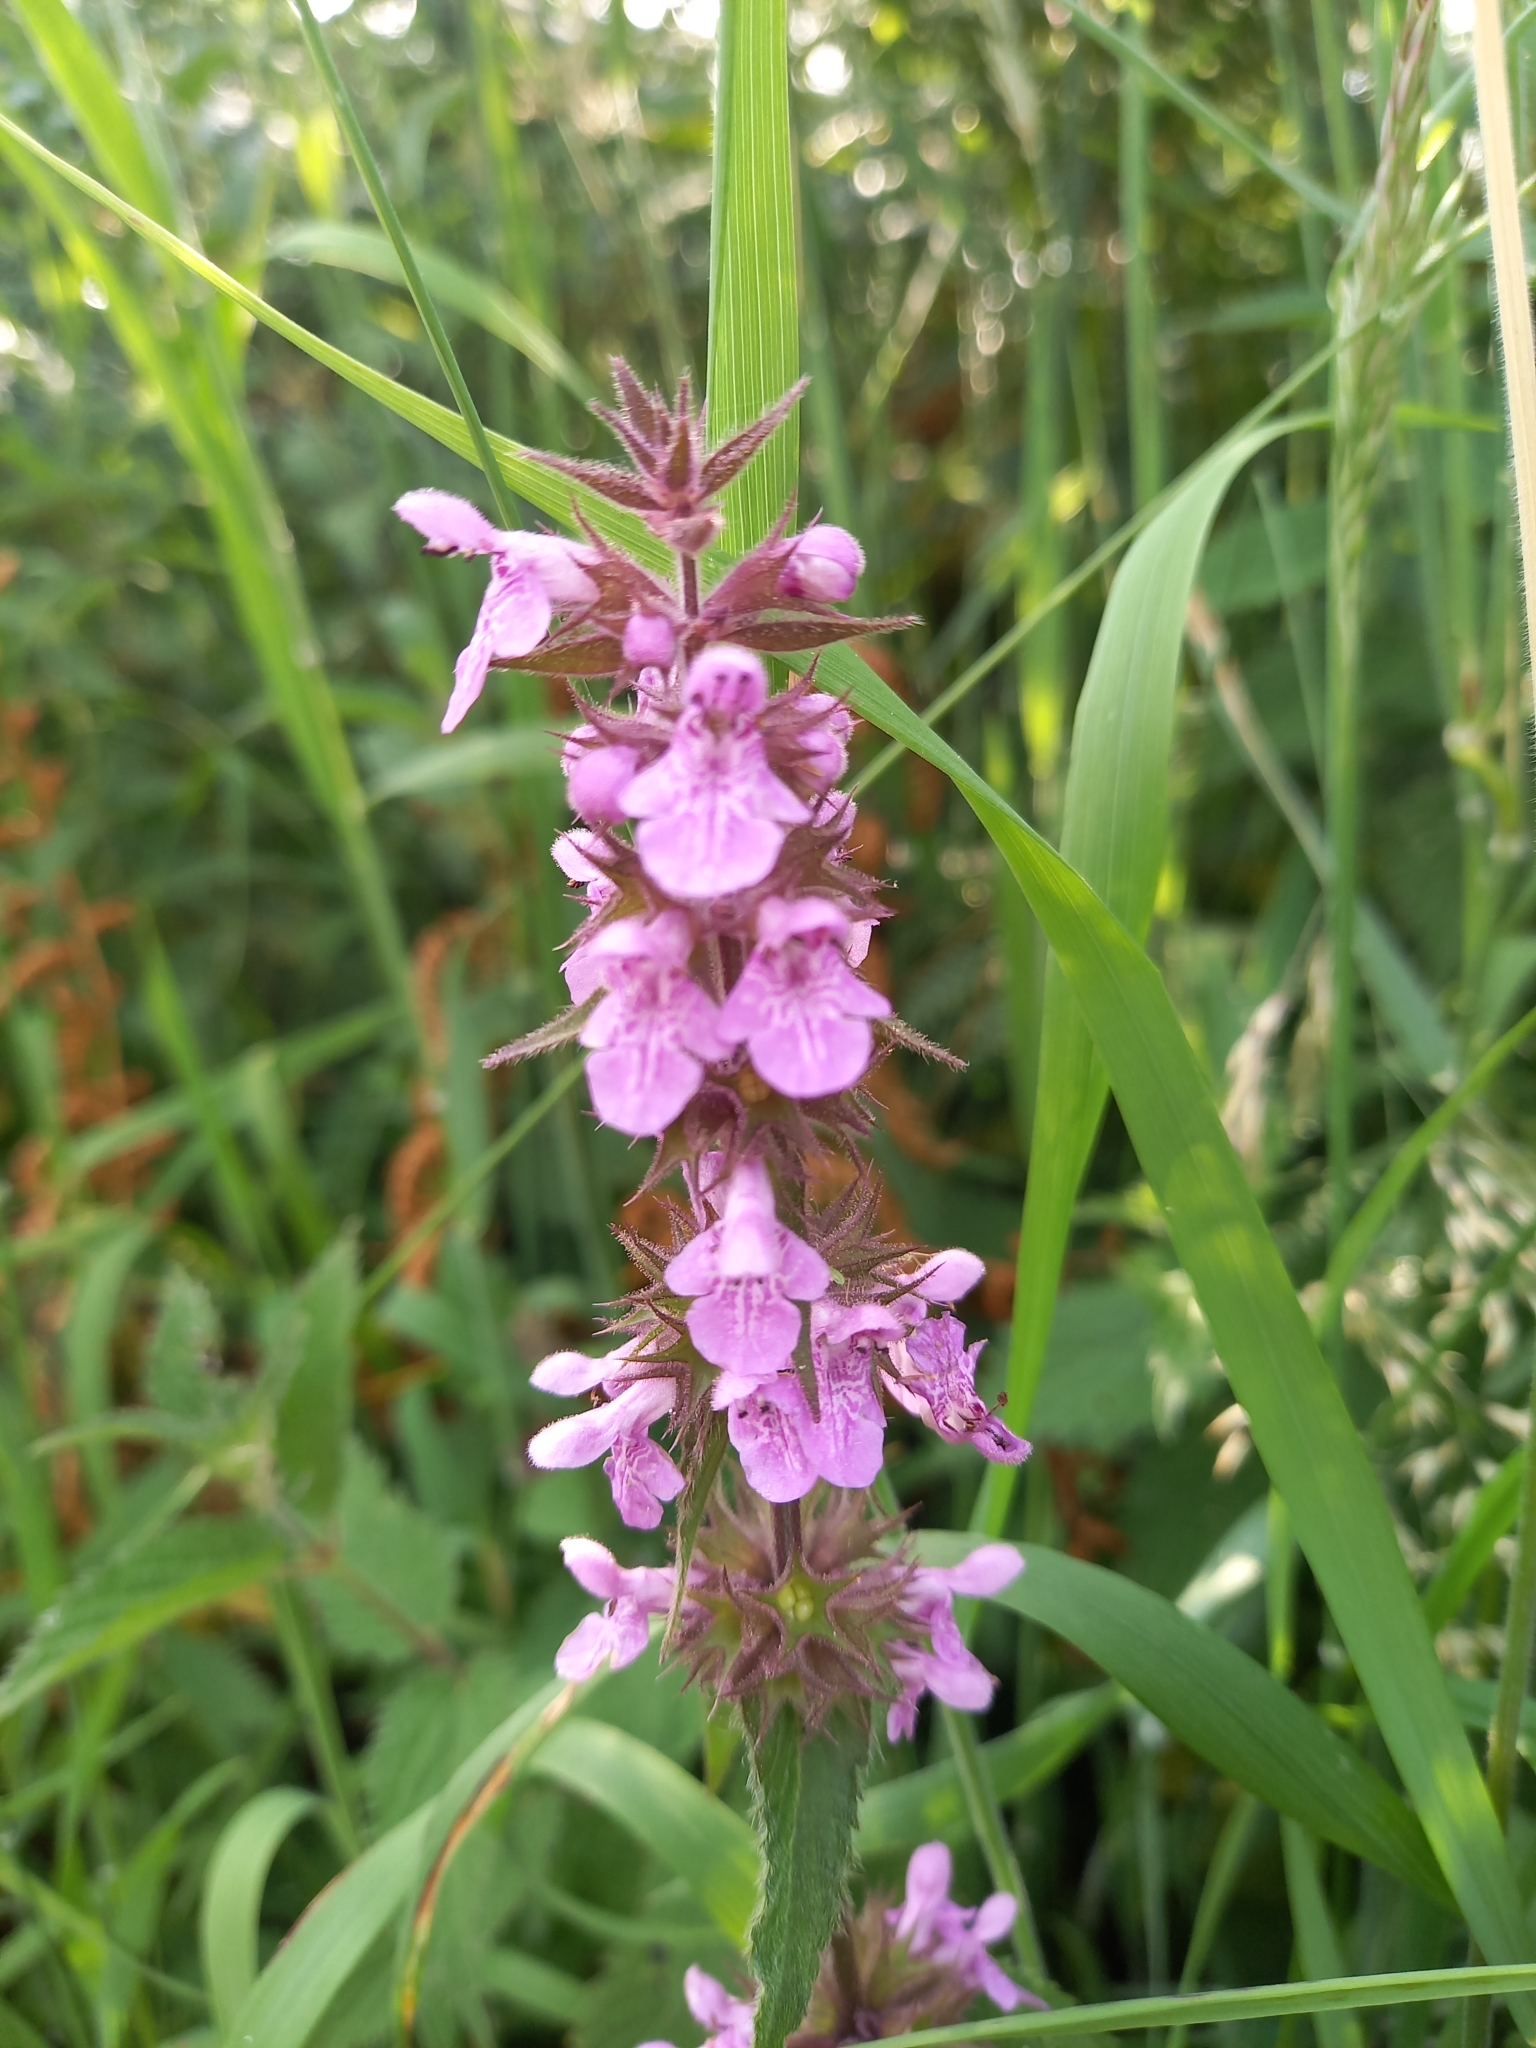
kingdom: Plantae
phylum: Tracheophyta
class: Magnoliopsida
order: Lamiales
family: Lamiaceae
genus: Stachys
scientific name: Stachys palustris
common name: Marsh woundwort
